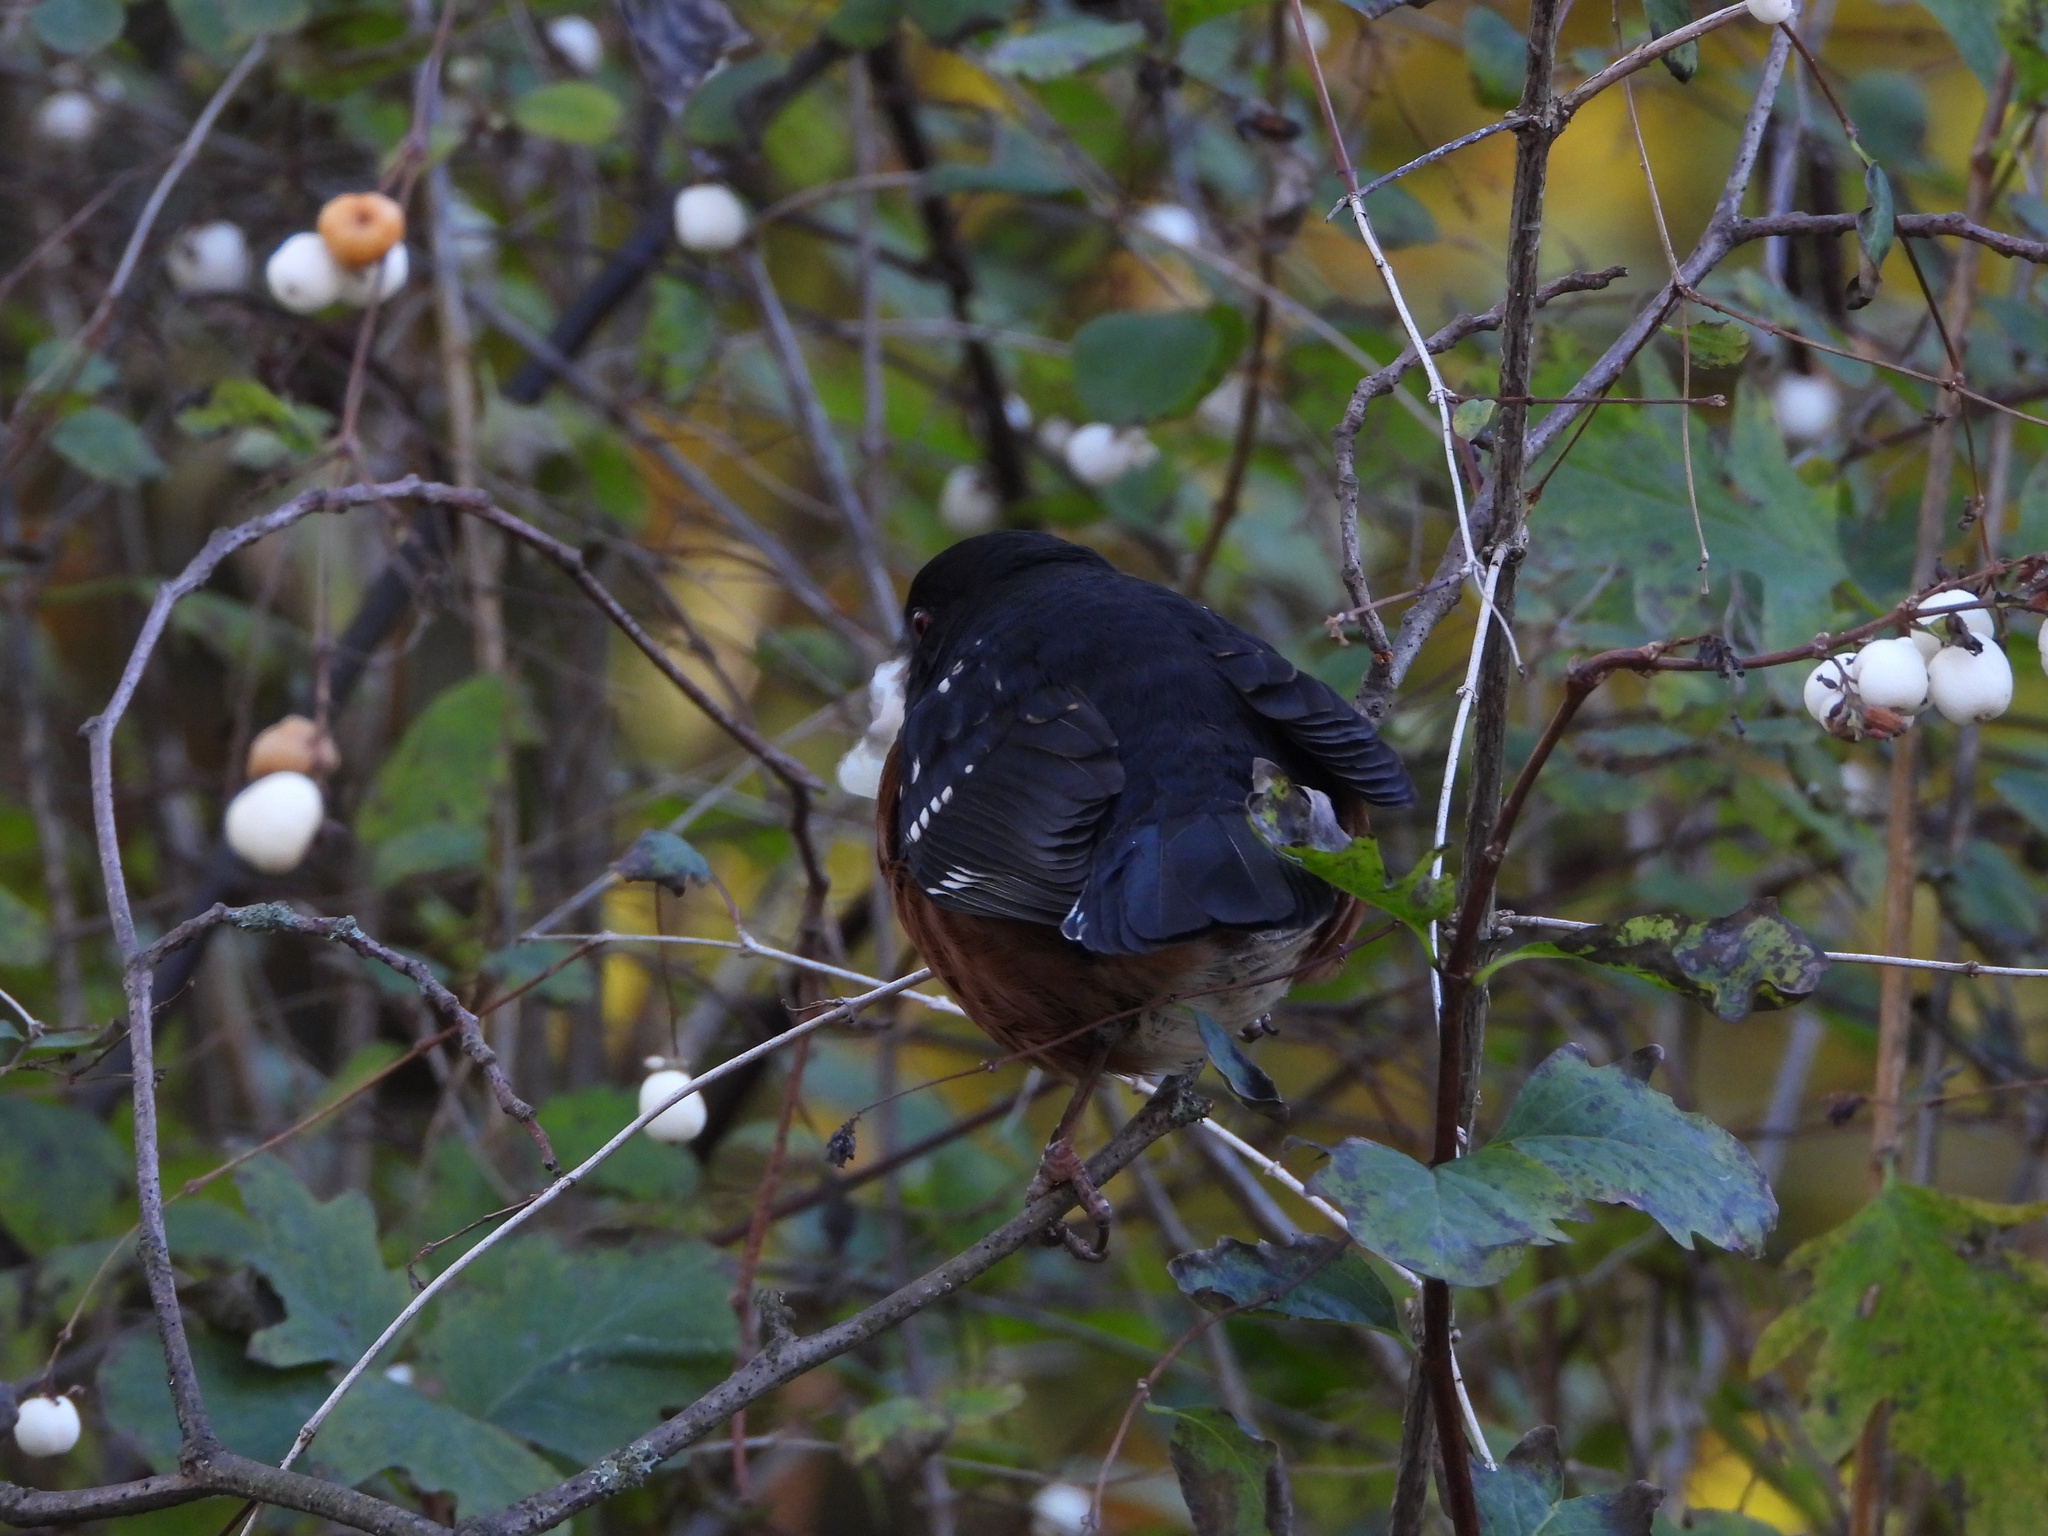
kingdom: Plantae
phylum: Tracheophyta
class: Magnoliopsida
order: Dipsacales
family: Caprifoliaceae
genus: Symphoricarpos
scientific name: Symphoricarpos albus
